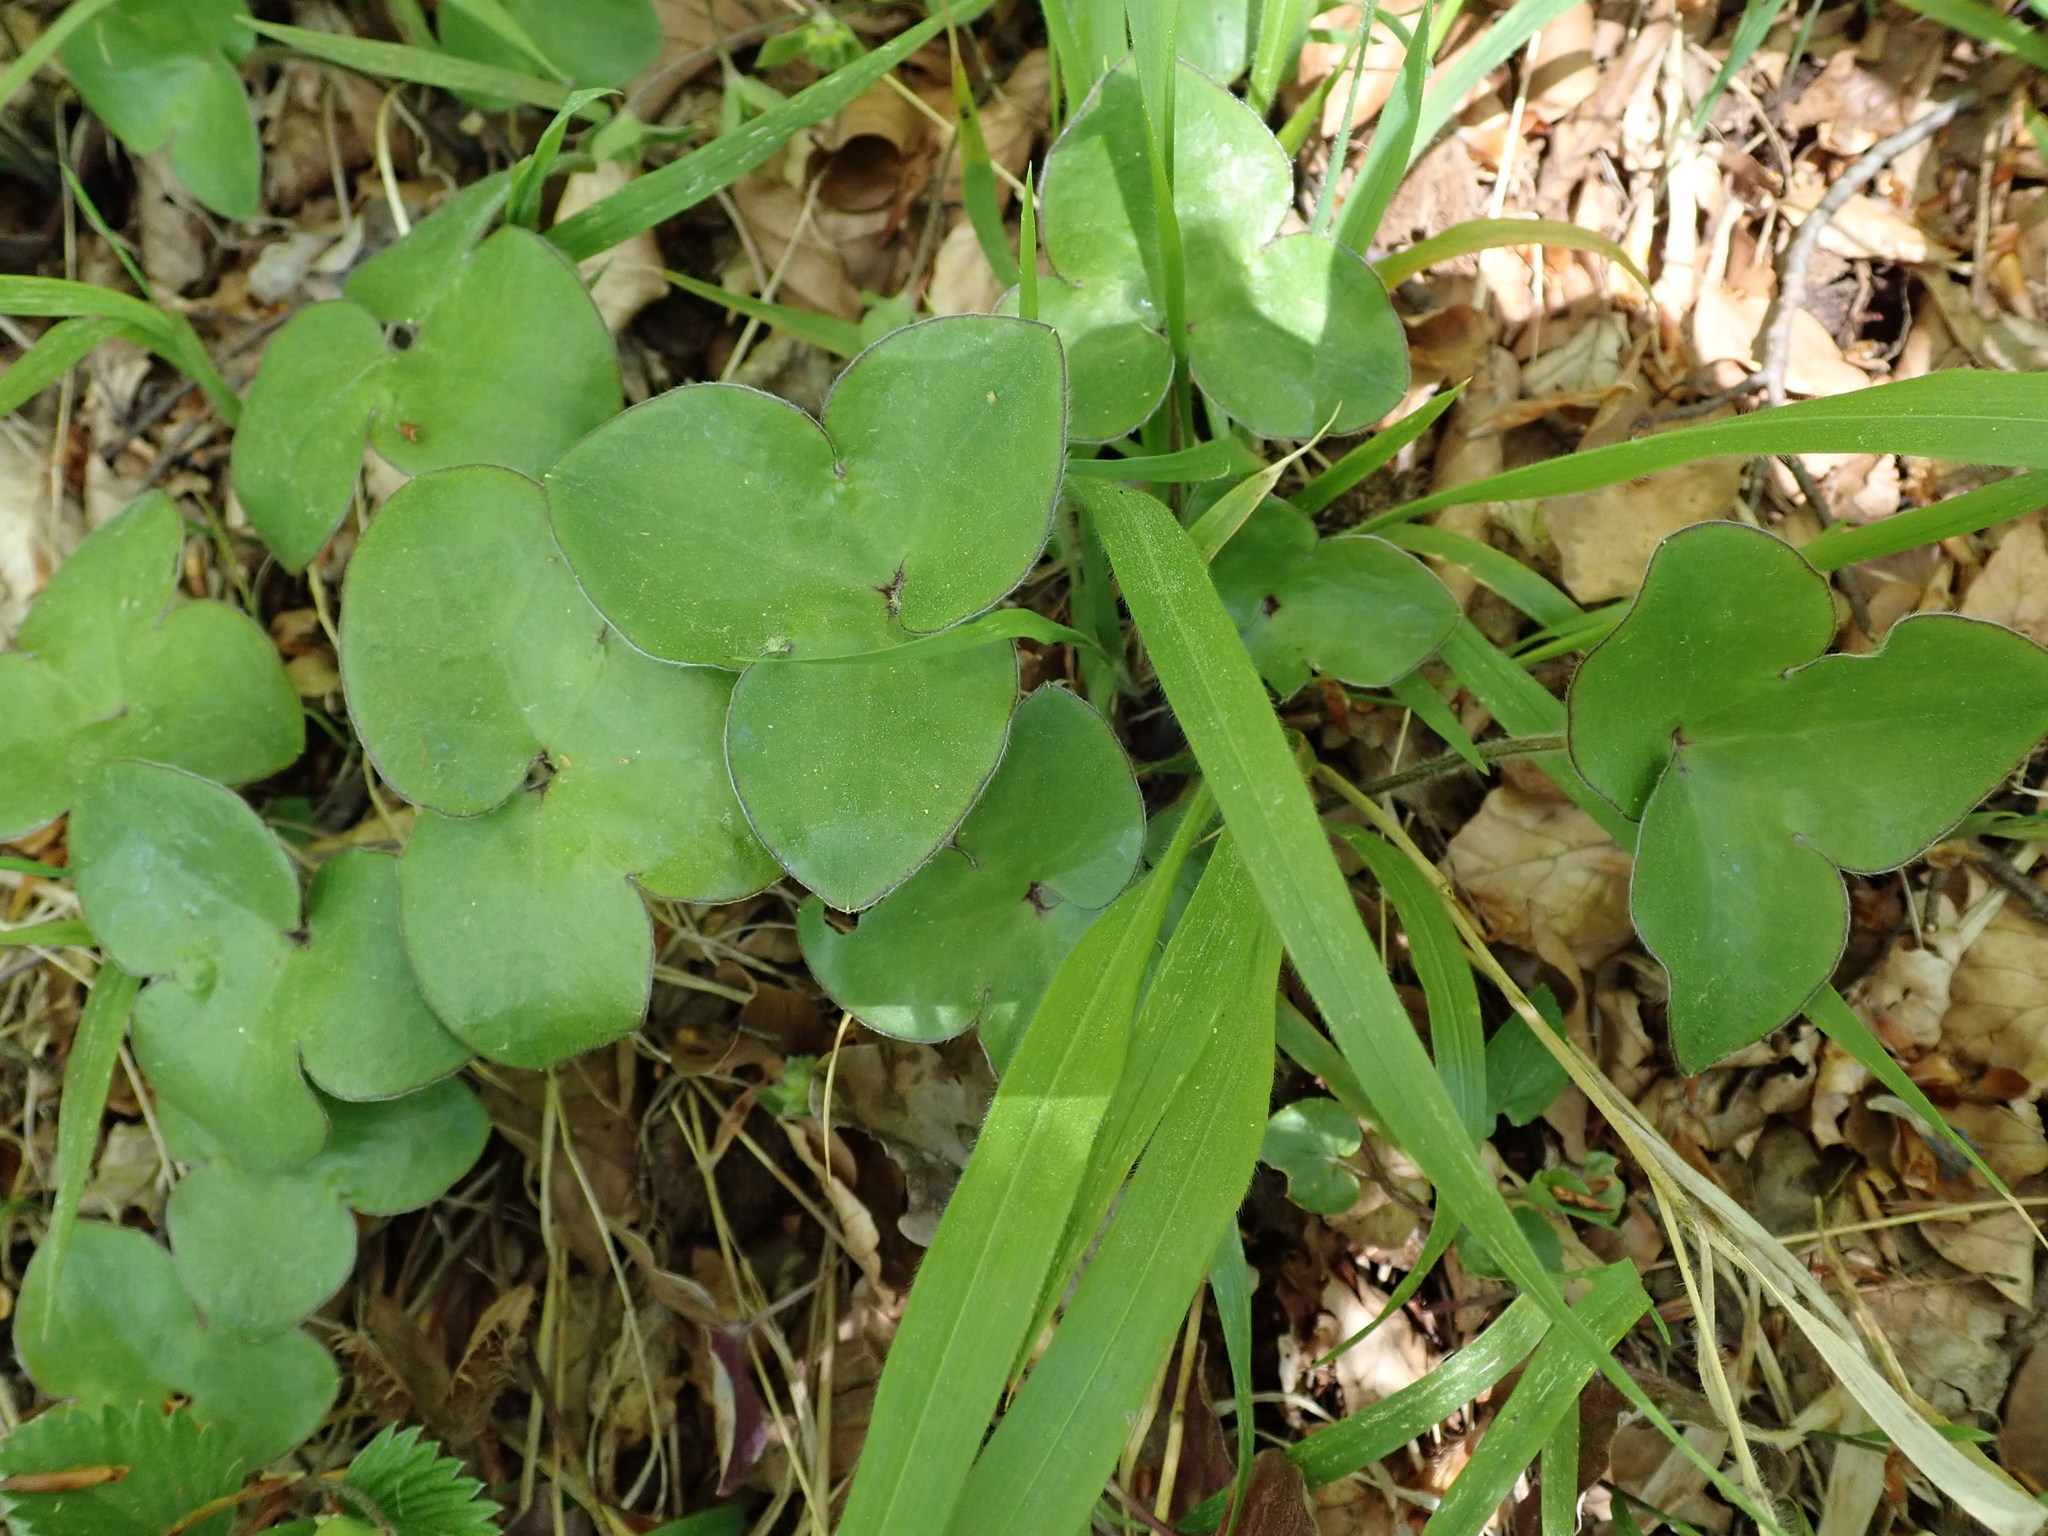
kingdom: Plantae
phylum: Tracheophyta
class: Magnoliopsida
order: Ranunculales
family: Ranunculaceae
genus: Hepatica
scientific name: Hepatica nobilis
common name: Liverleaf
